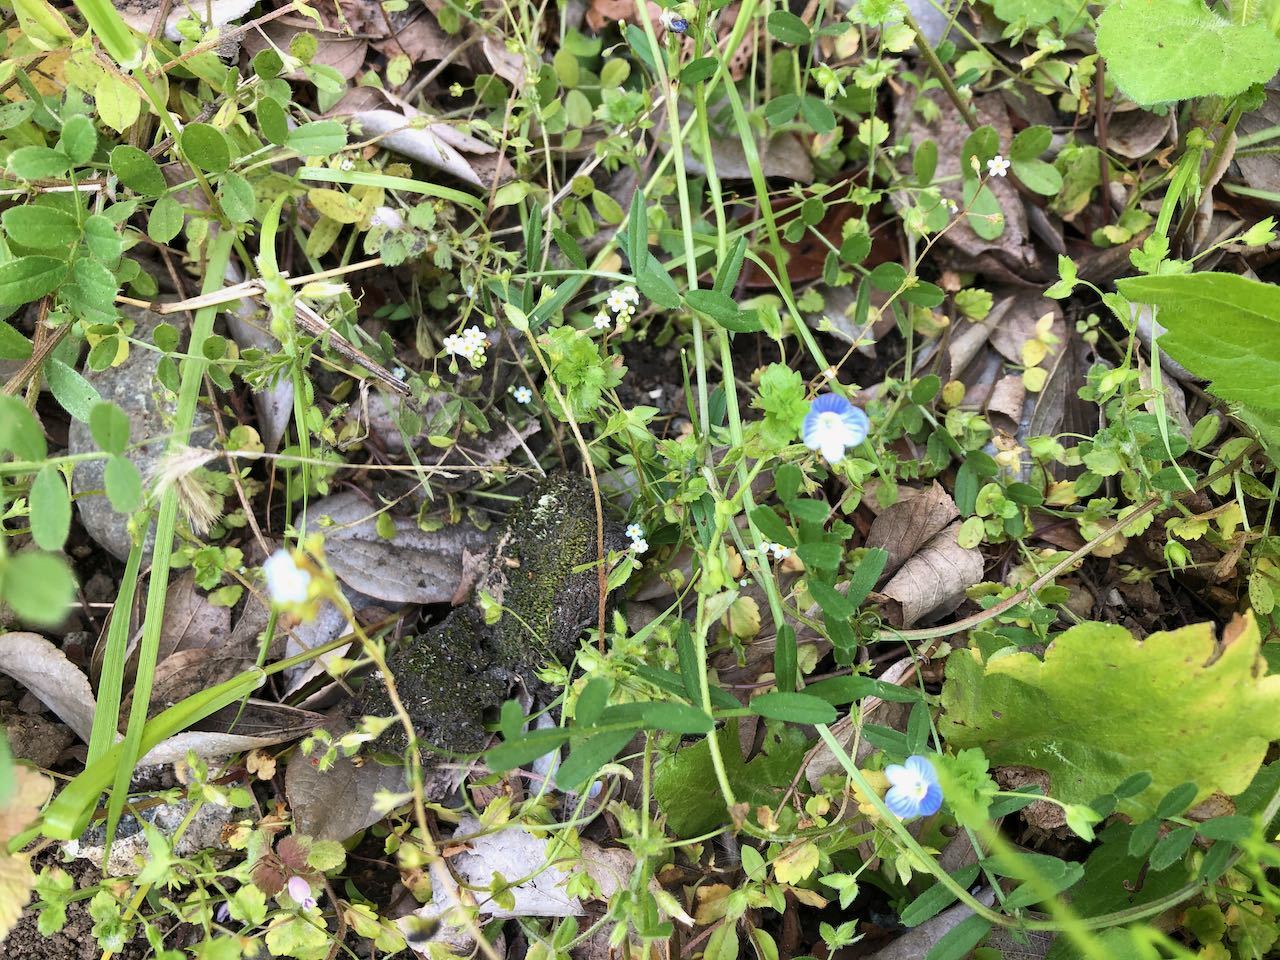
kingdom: Plantae
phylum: Tracheophyta
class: Magnoliopsida
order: Lamiales
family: Plantaginaceae
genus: Veronica
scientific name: Veronica persica
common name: Common field-speedwell
